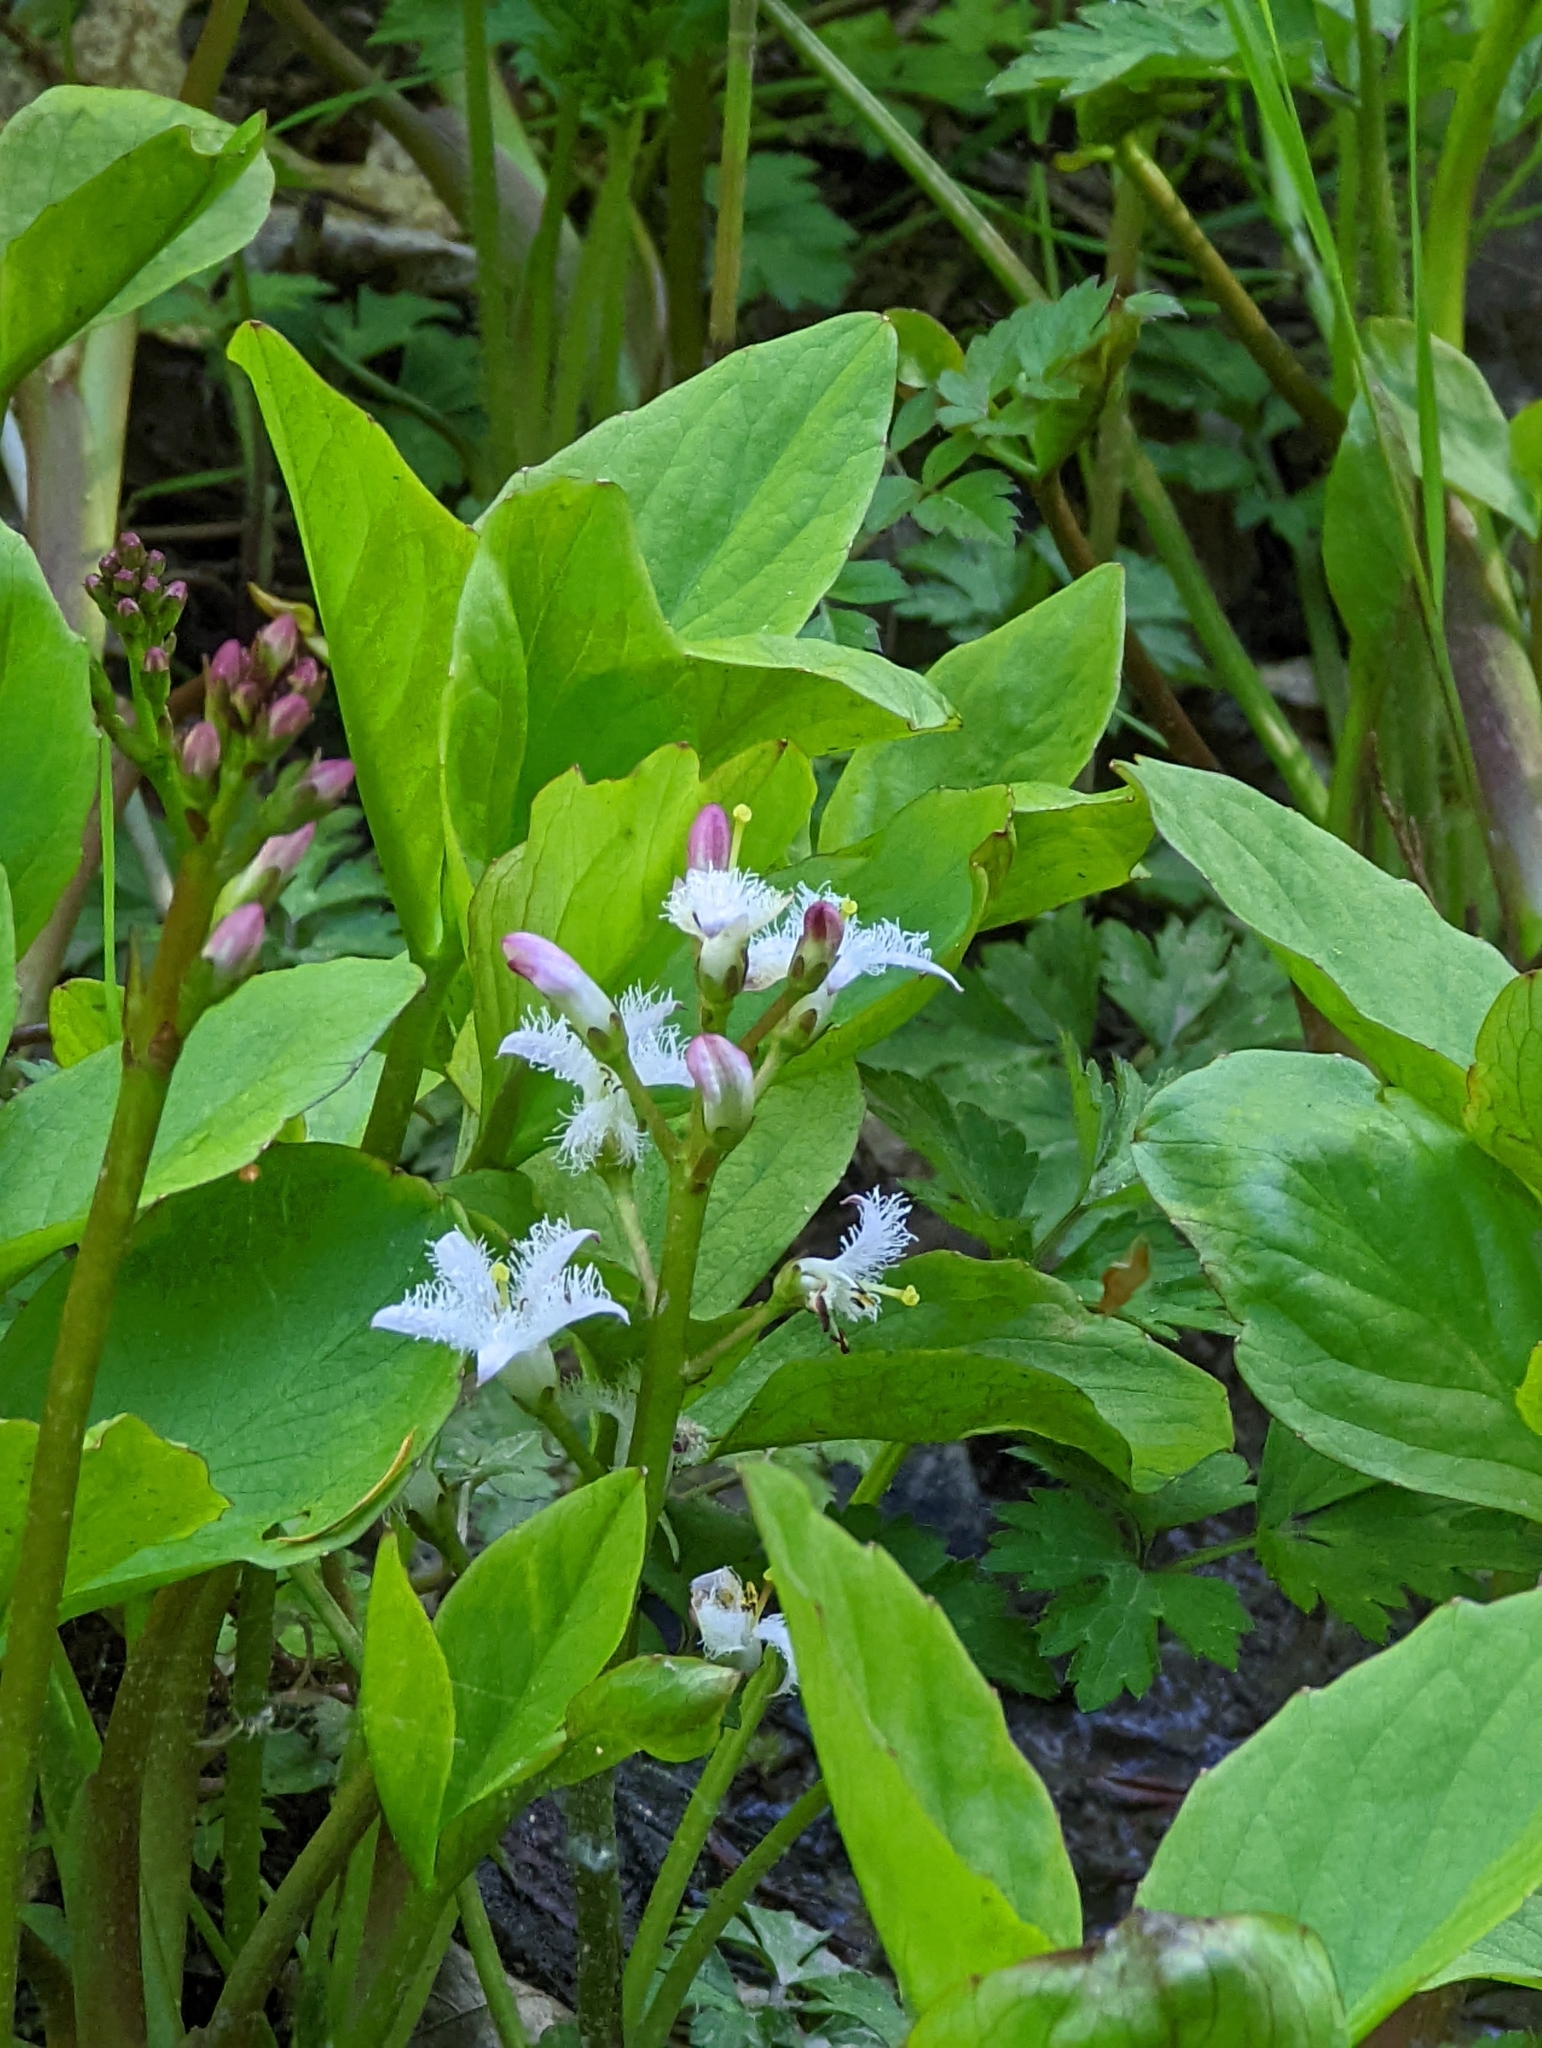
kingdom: Plantae
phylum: Tracheophyta
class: Magnoliopsida
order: Asterales
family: Menyanthaceae
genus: Menyanthes
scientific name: Menyanthes trifoliata
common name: Bogbean
